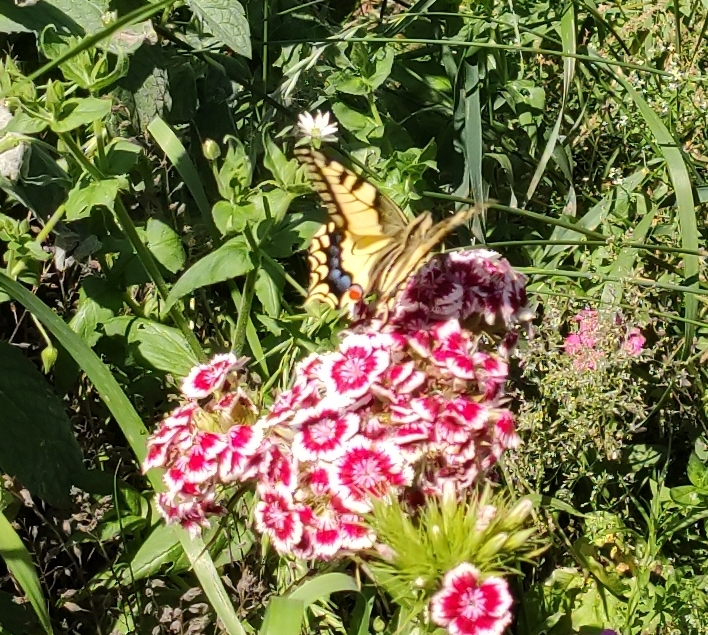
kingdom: Animalia
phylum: Arthropoda
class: Insecta
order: Lepidoptera
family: Papilionidae
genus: Papilio
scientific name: Papilio machaon
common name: Swallowtail
